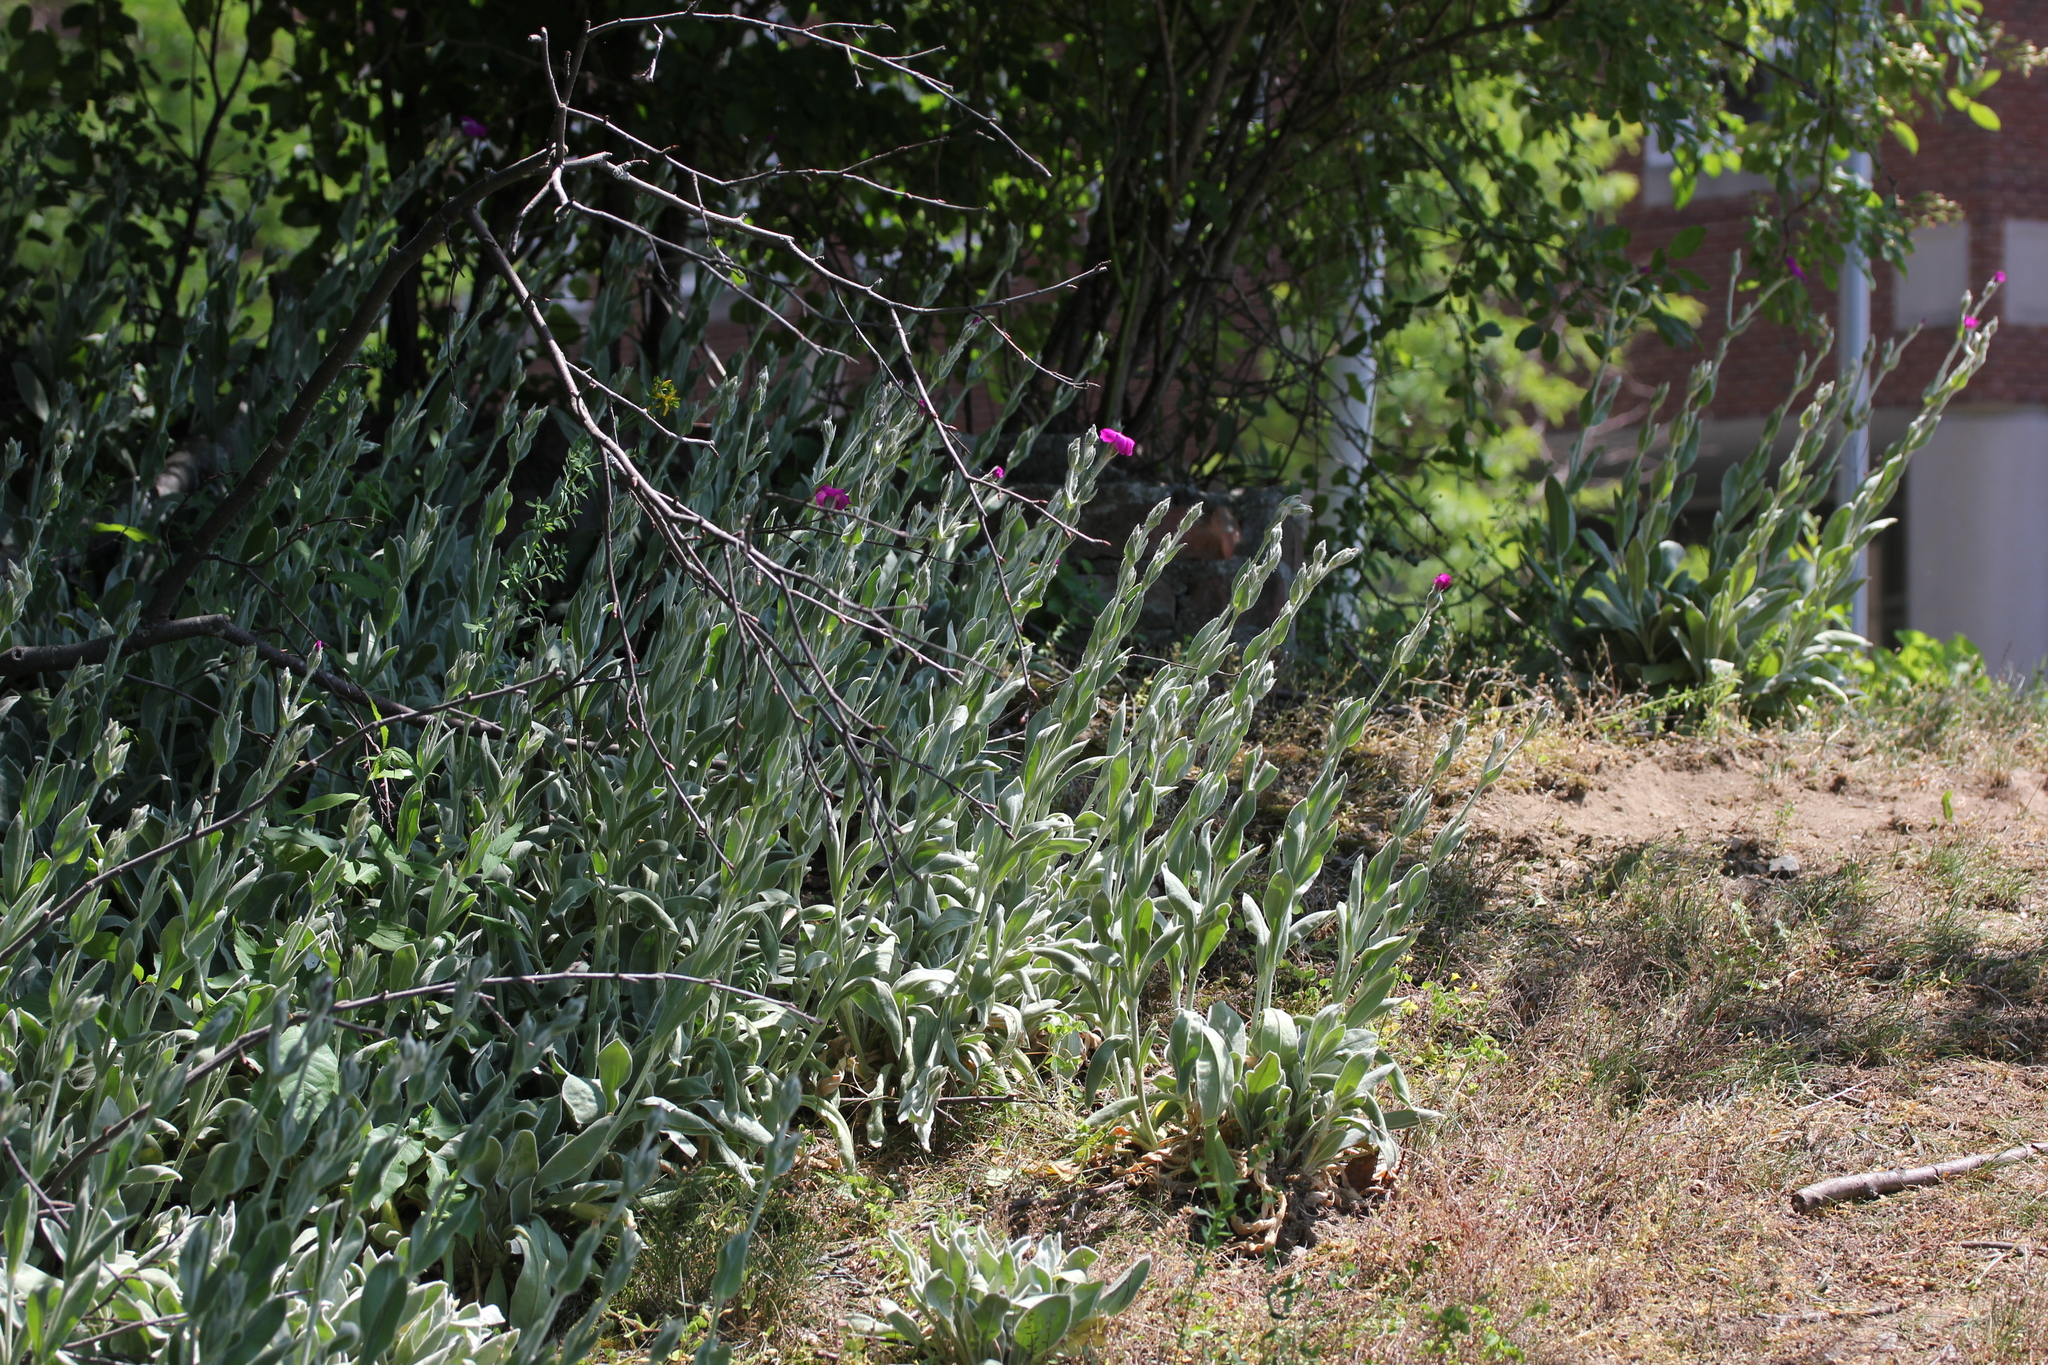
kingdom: Plantae
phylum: Tracheophyta
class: Magnoliopsida
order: Caryophyllales
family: Caryophyllaceae
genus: Silene
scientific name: Silene coronaria
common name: Rose campion
